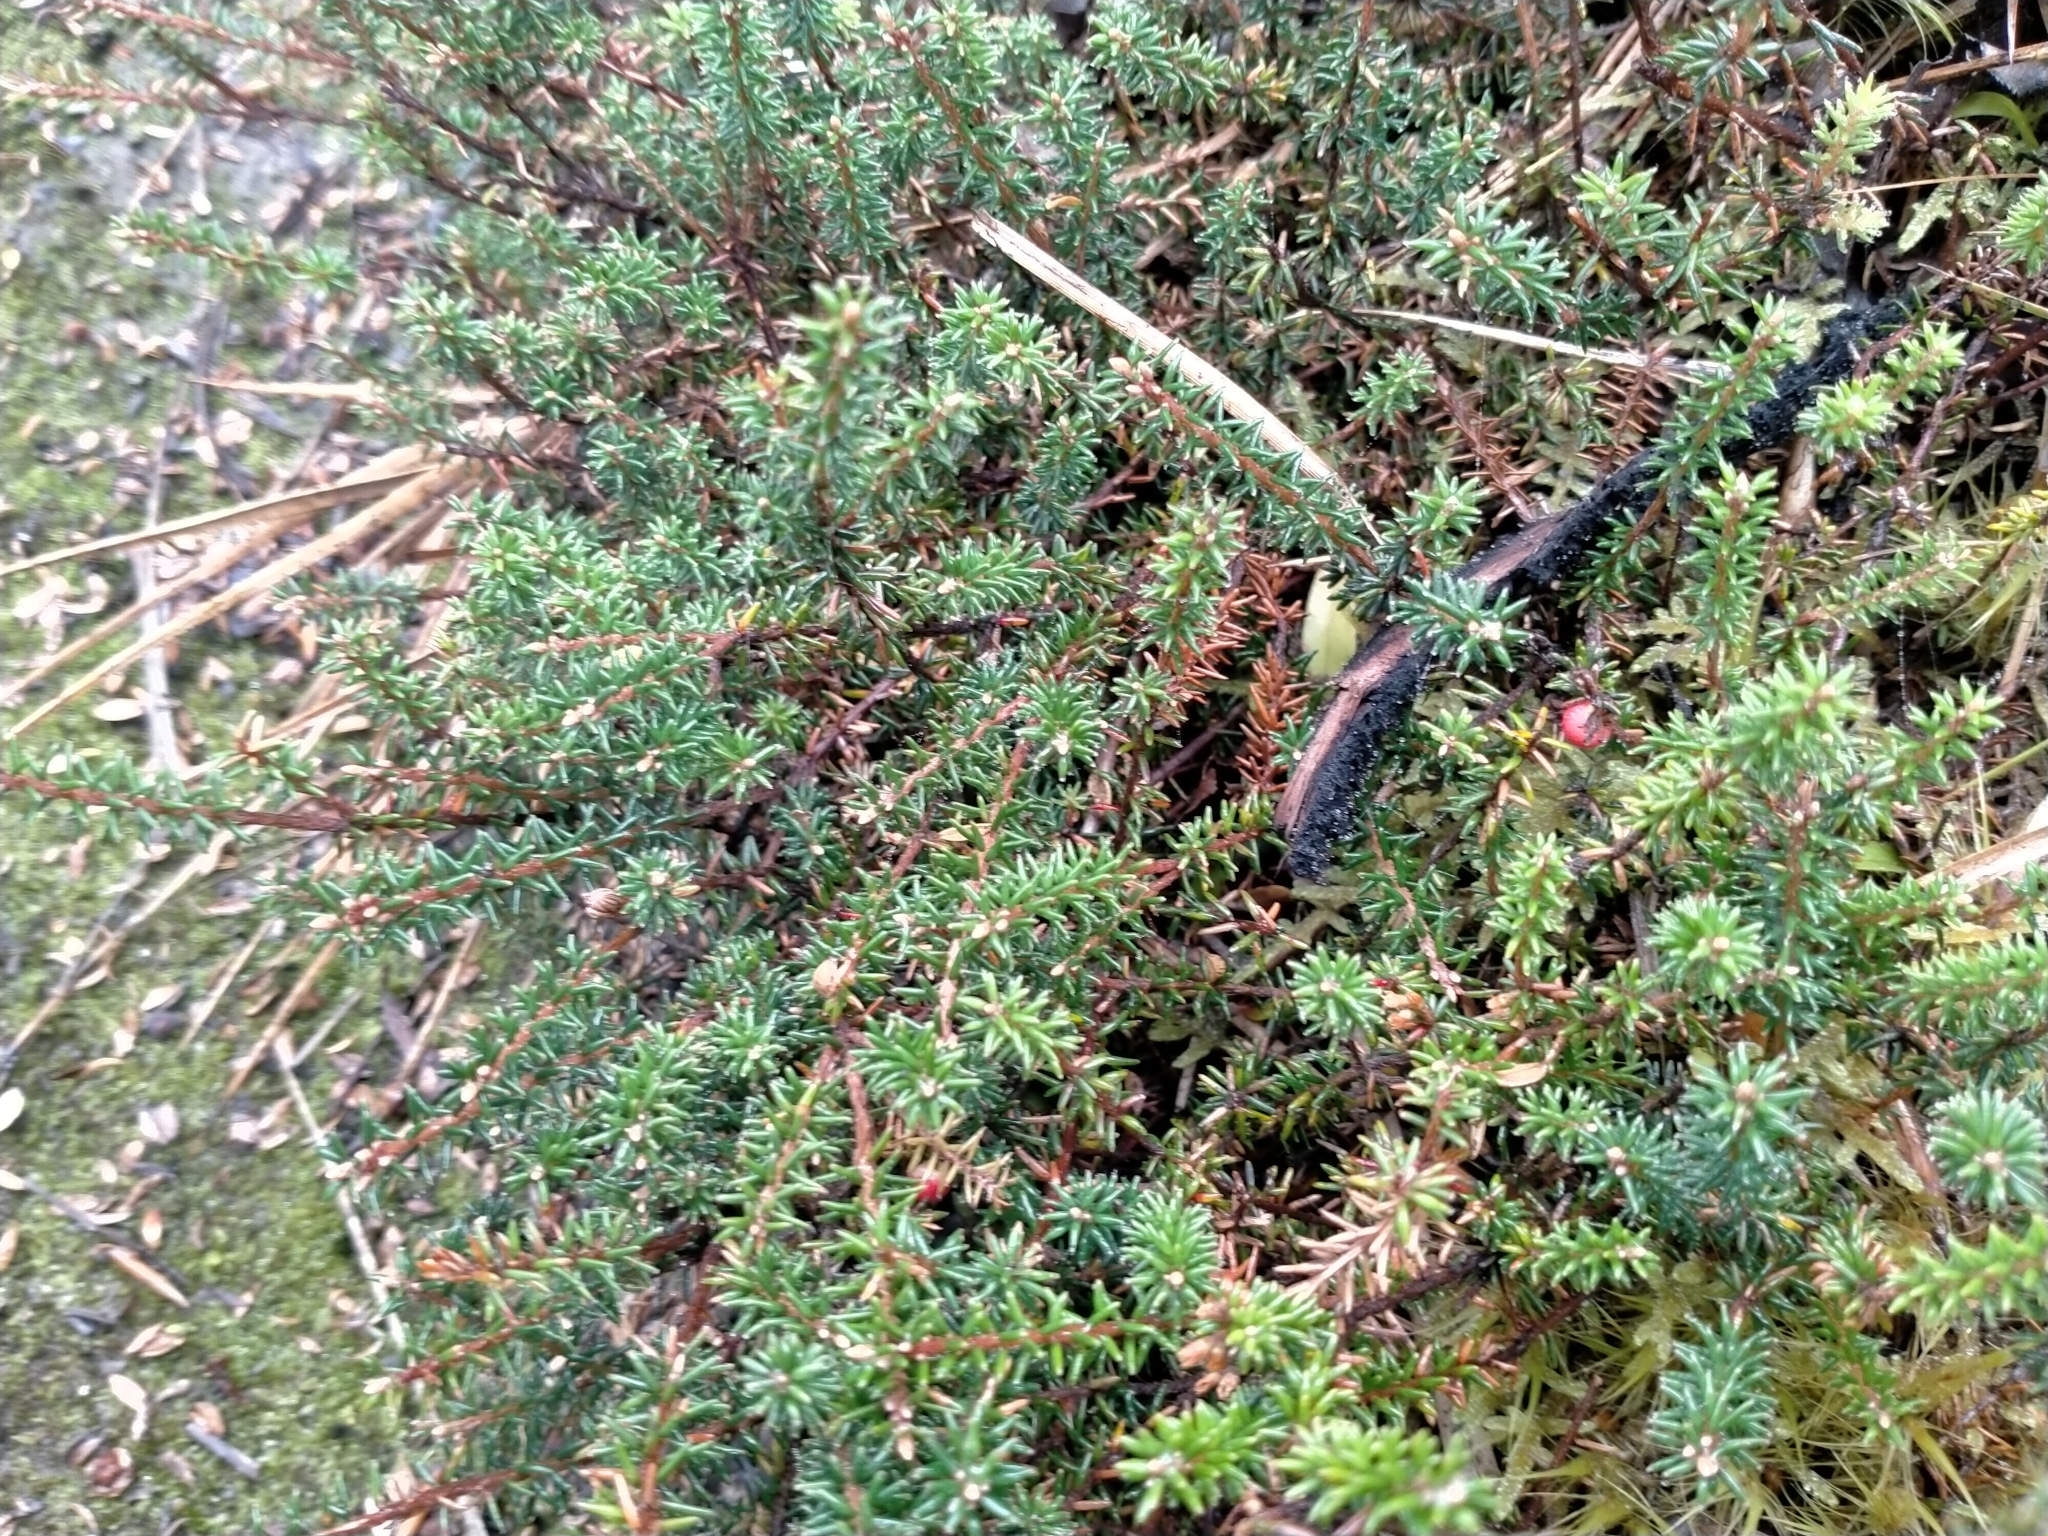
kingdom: Plantae
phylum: Tracheophyta
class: Magnoliopsida
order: Ericales
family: Ericaceae
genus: Androstoma
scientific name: Androstoma empetrifolia
